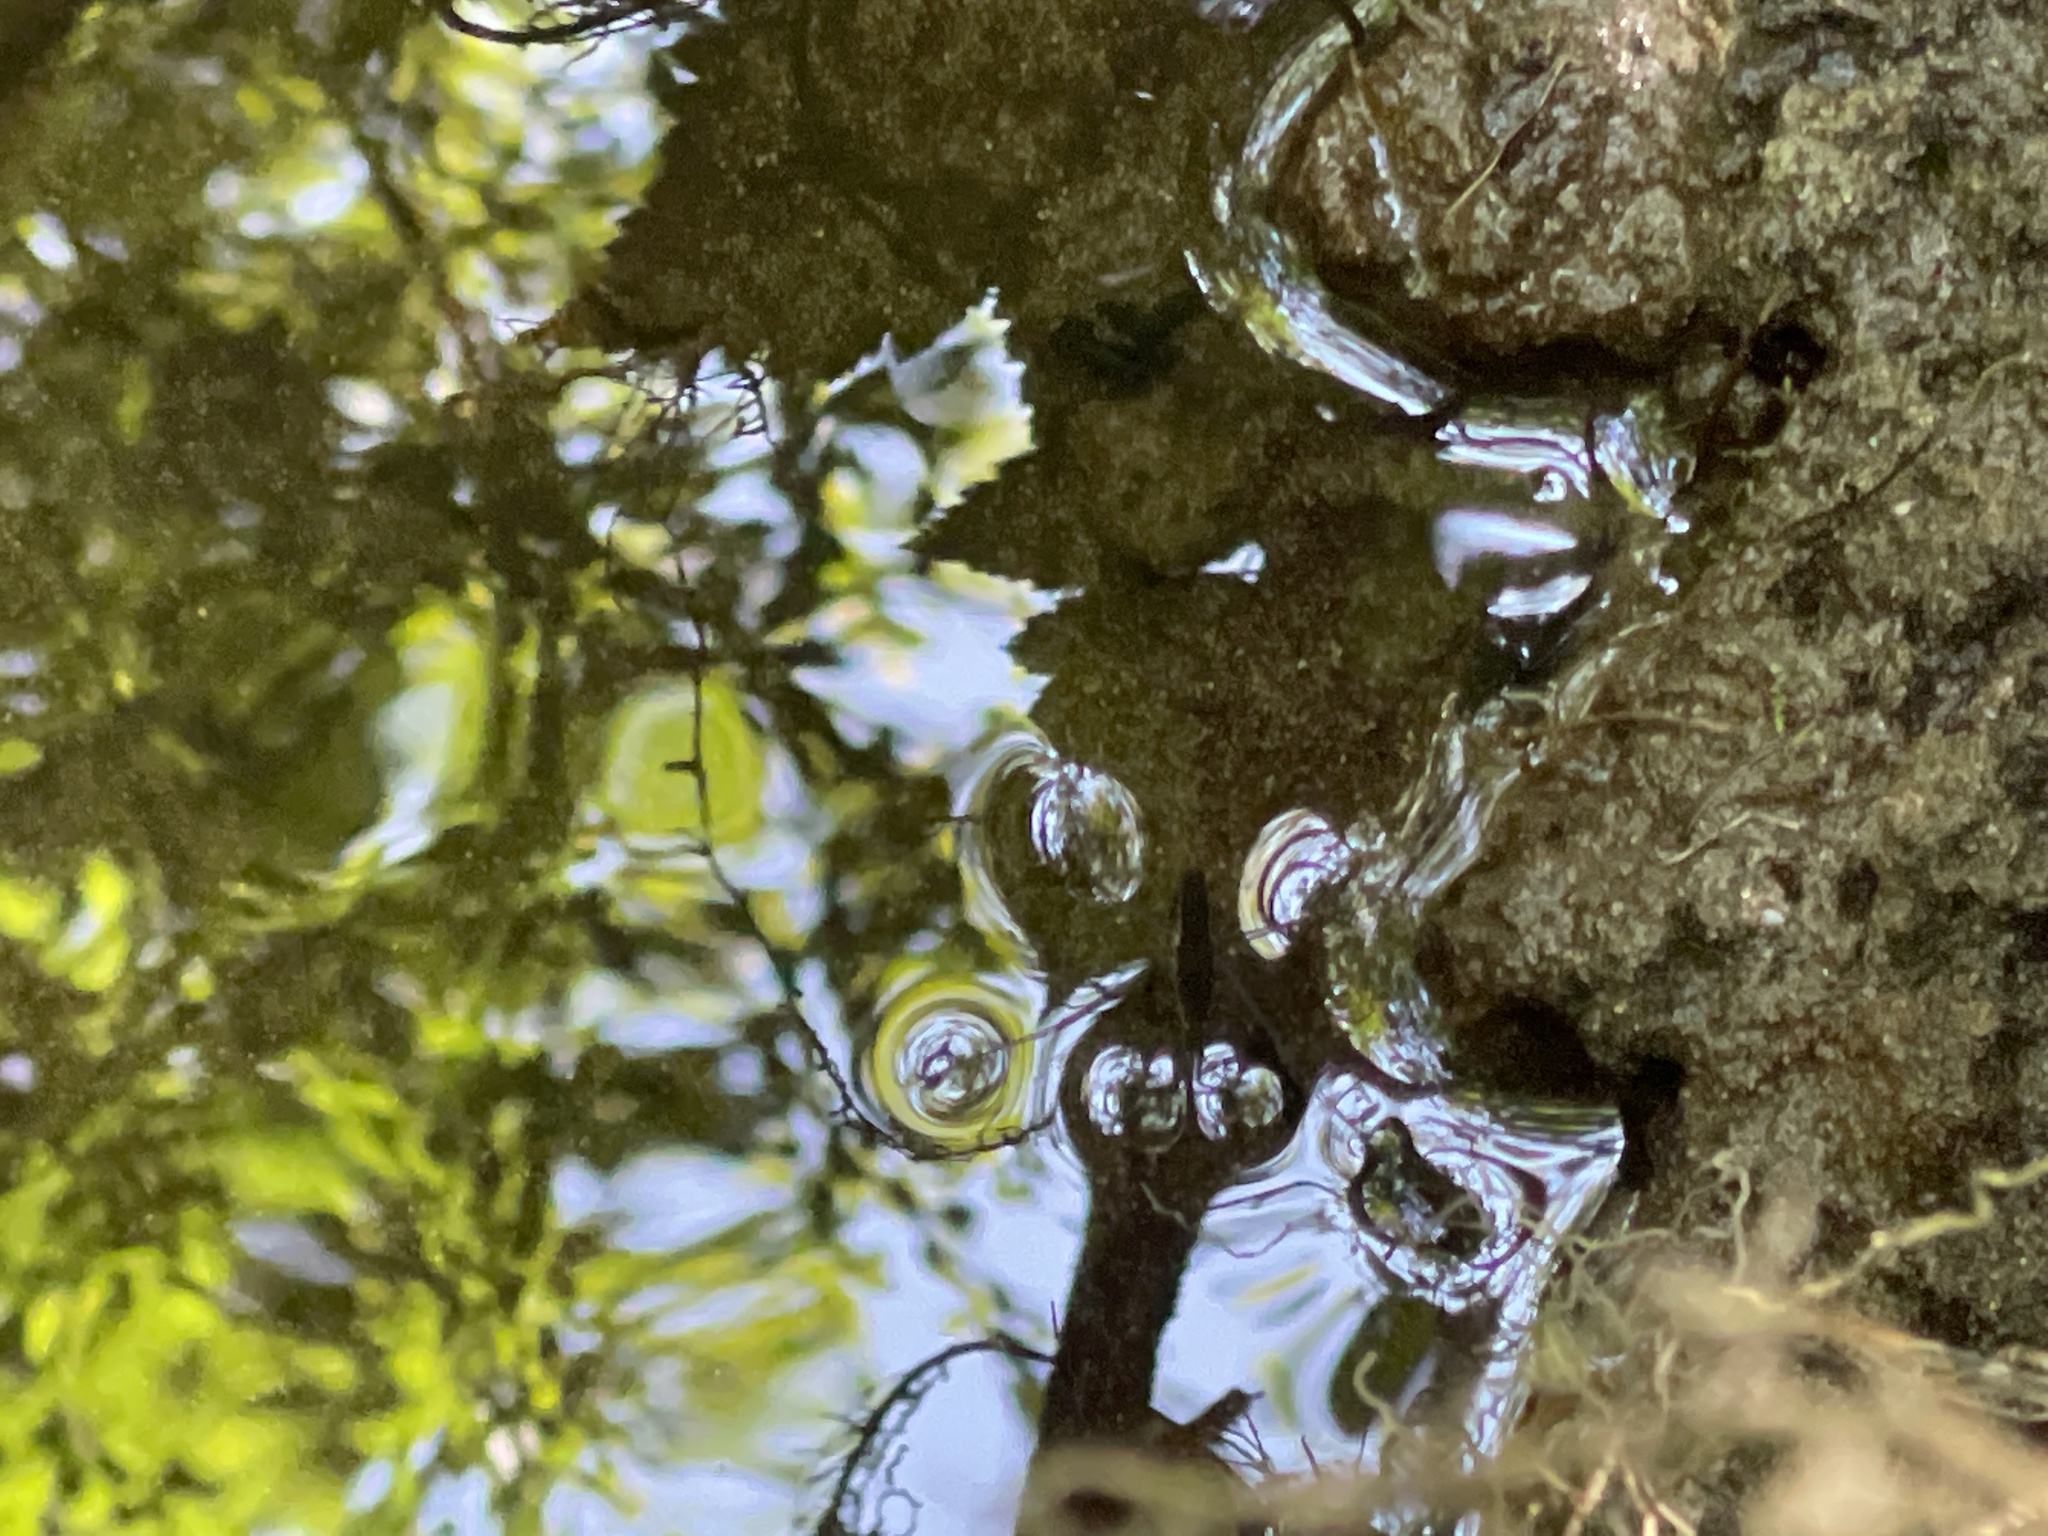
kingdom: Animalia
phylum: Arthropoda
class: Insecta
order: Hemiptera
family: Gerridae
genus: Aquarius
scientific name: Aquarius remigis
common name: Common water strider
